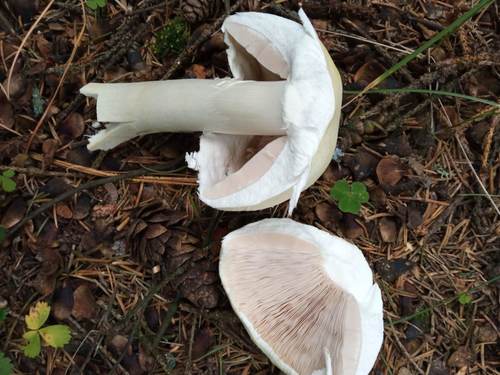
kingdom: Fungi
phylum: Basidiomycota
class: Agaricomycetes
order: Agaricales
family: Agaricaceae
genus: Agaricus
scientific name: Agaricus sylvicola
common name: Wood mushroom
